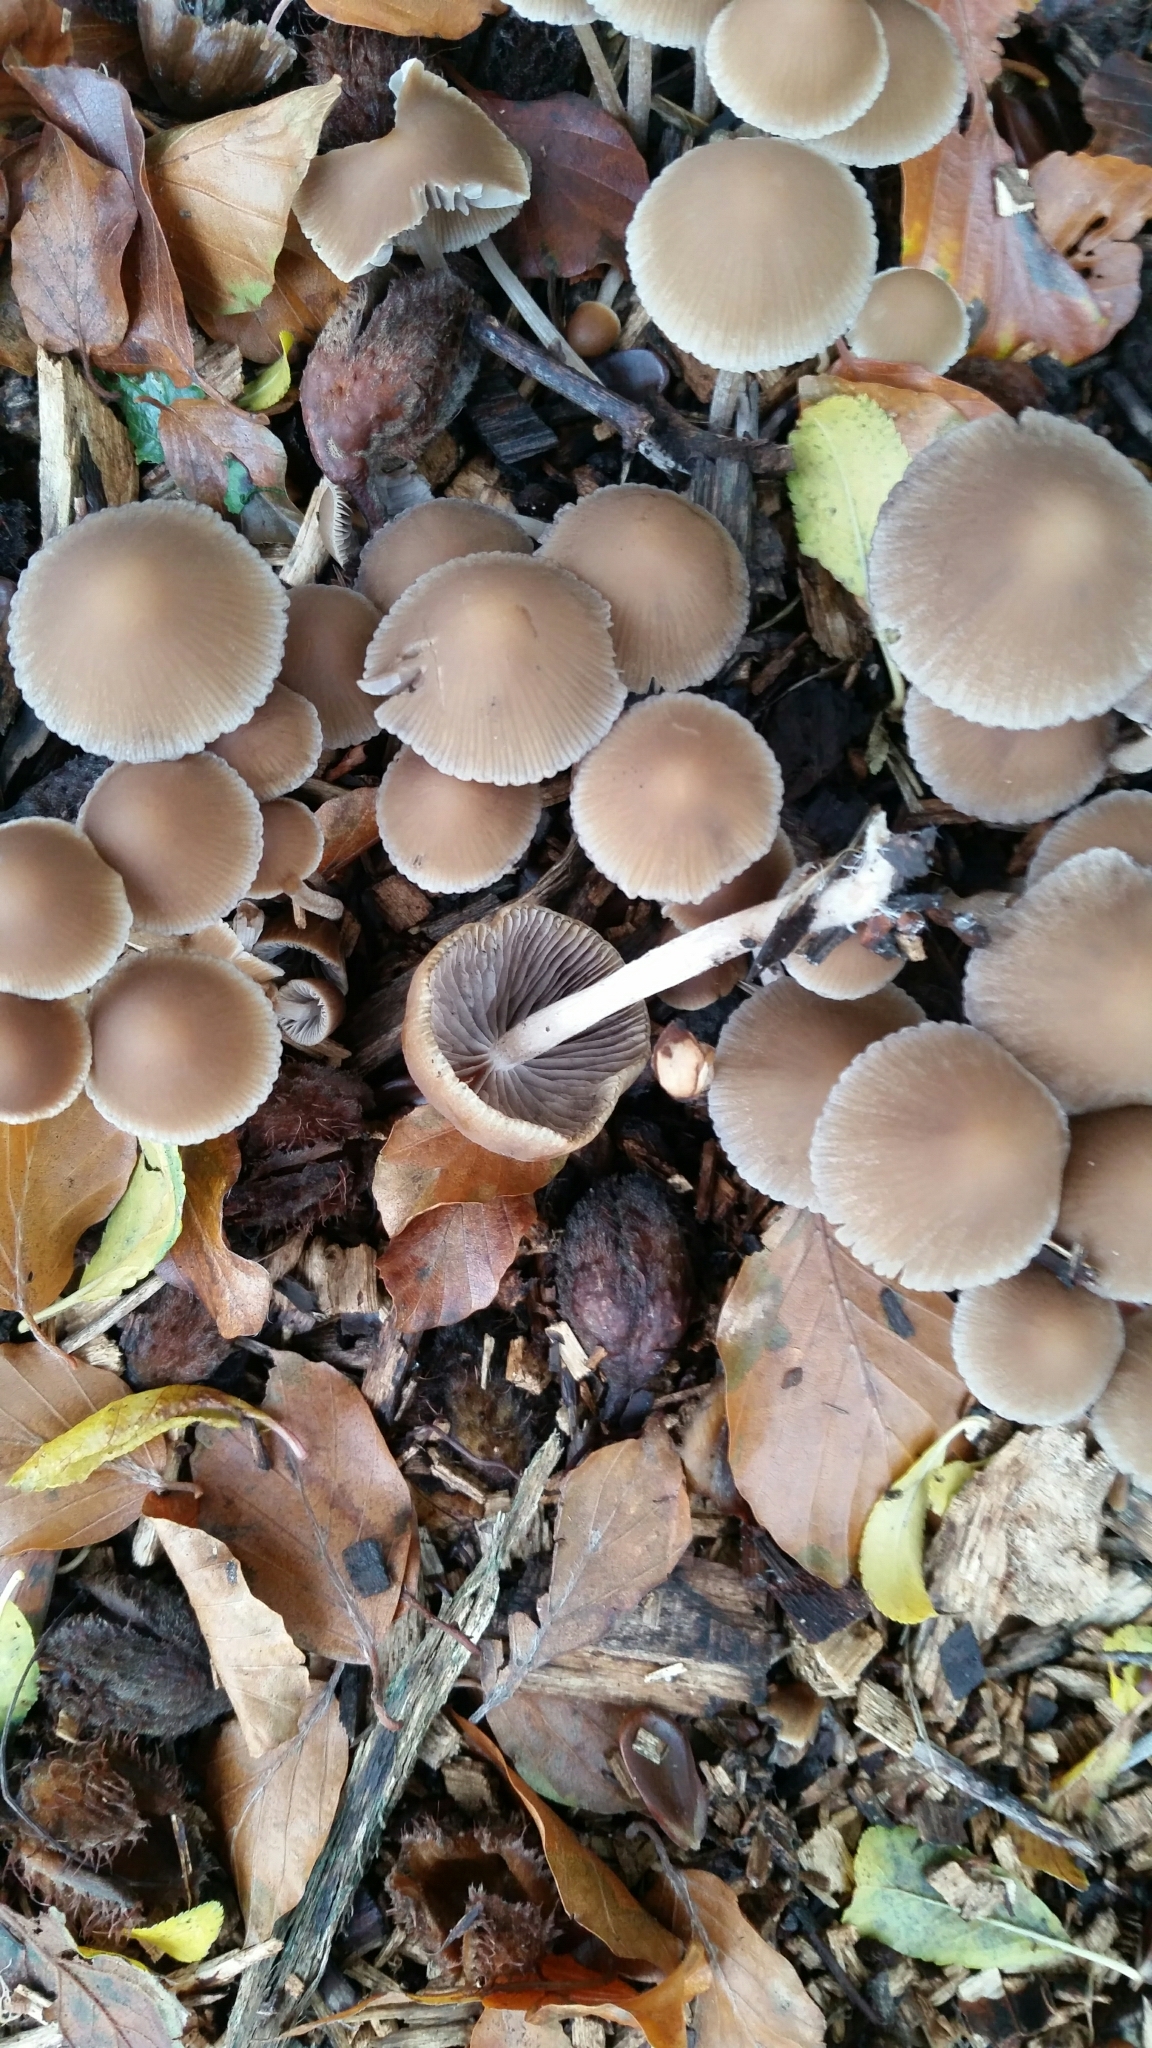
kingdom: Fungi
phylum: Basidiomycota
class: Agaricomycetes
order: Agaricales
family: Psathyrellaceae
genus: Coprinellus
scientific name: Coprinellus disseminatus
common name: Fairies' bonnets
